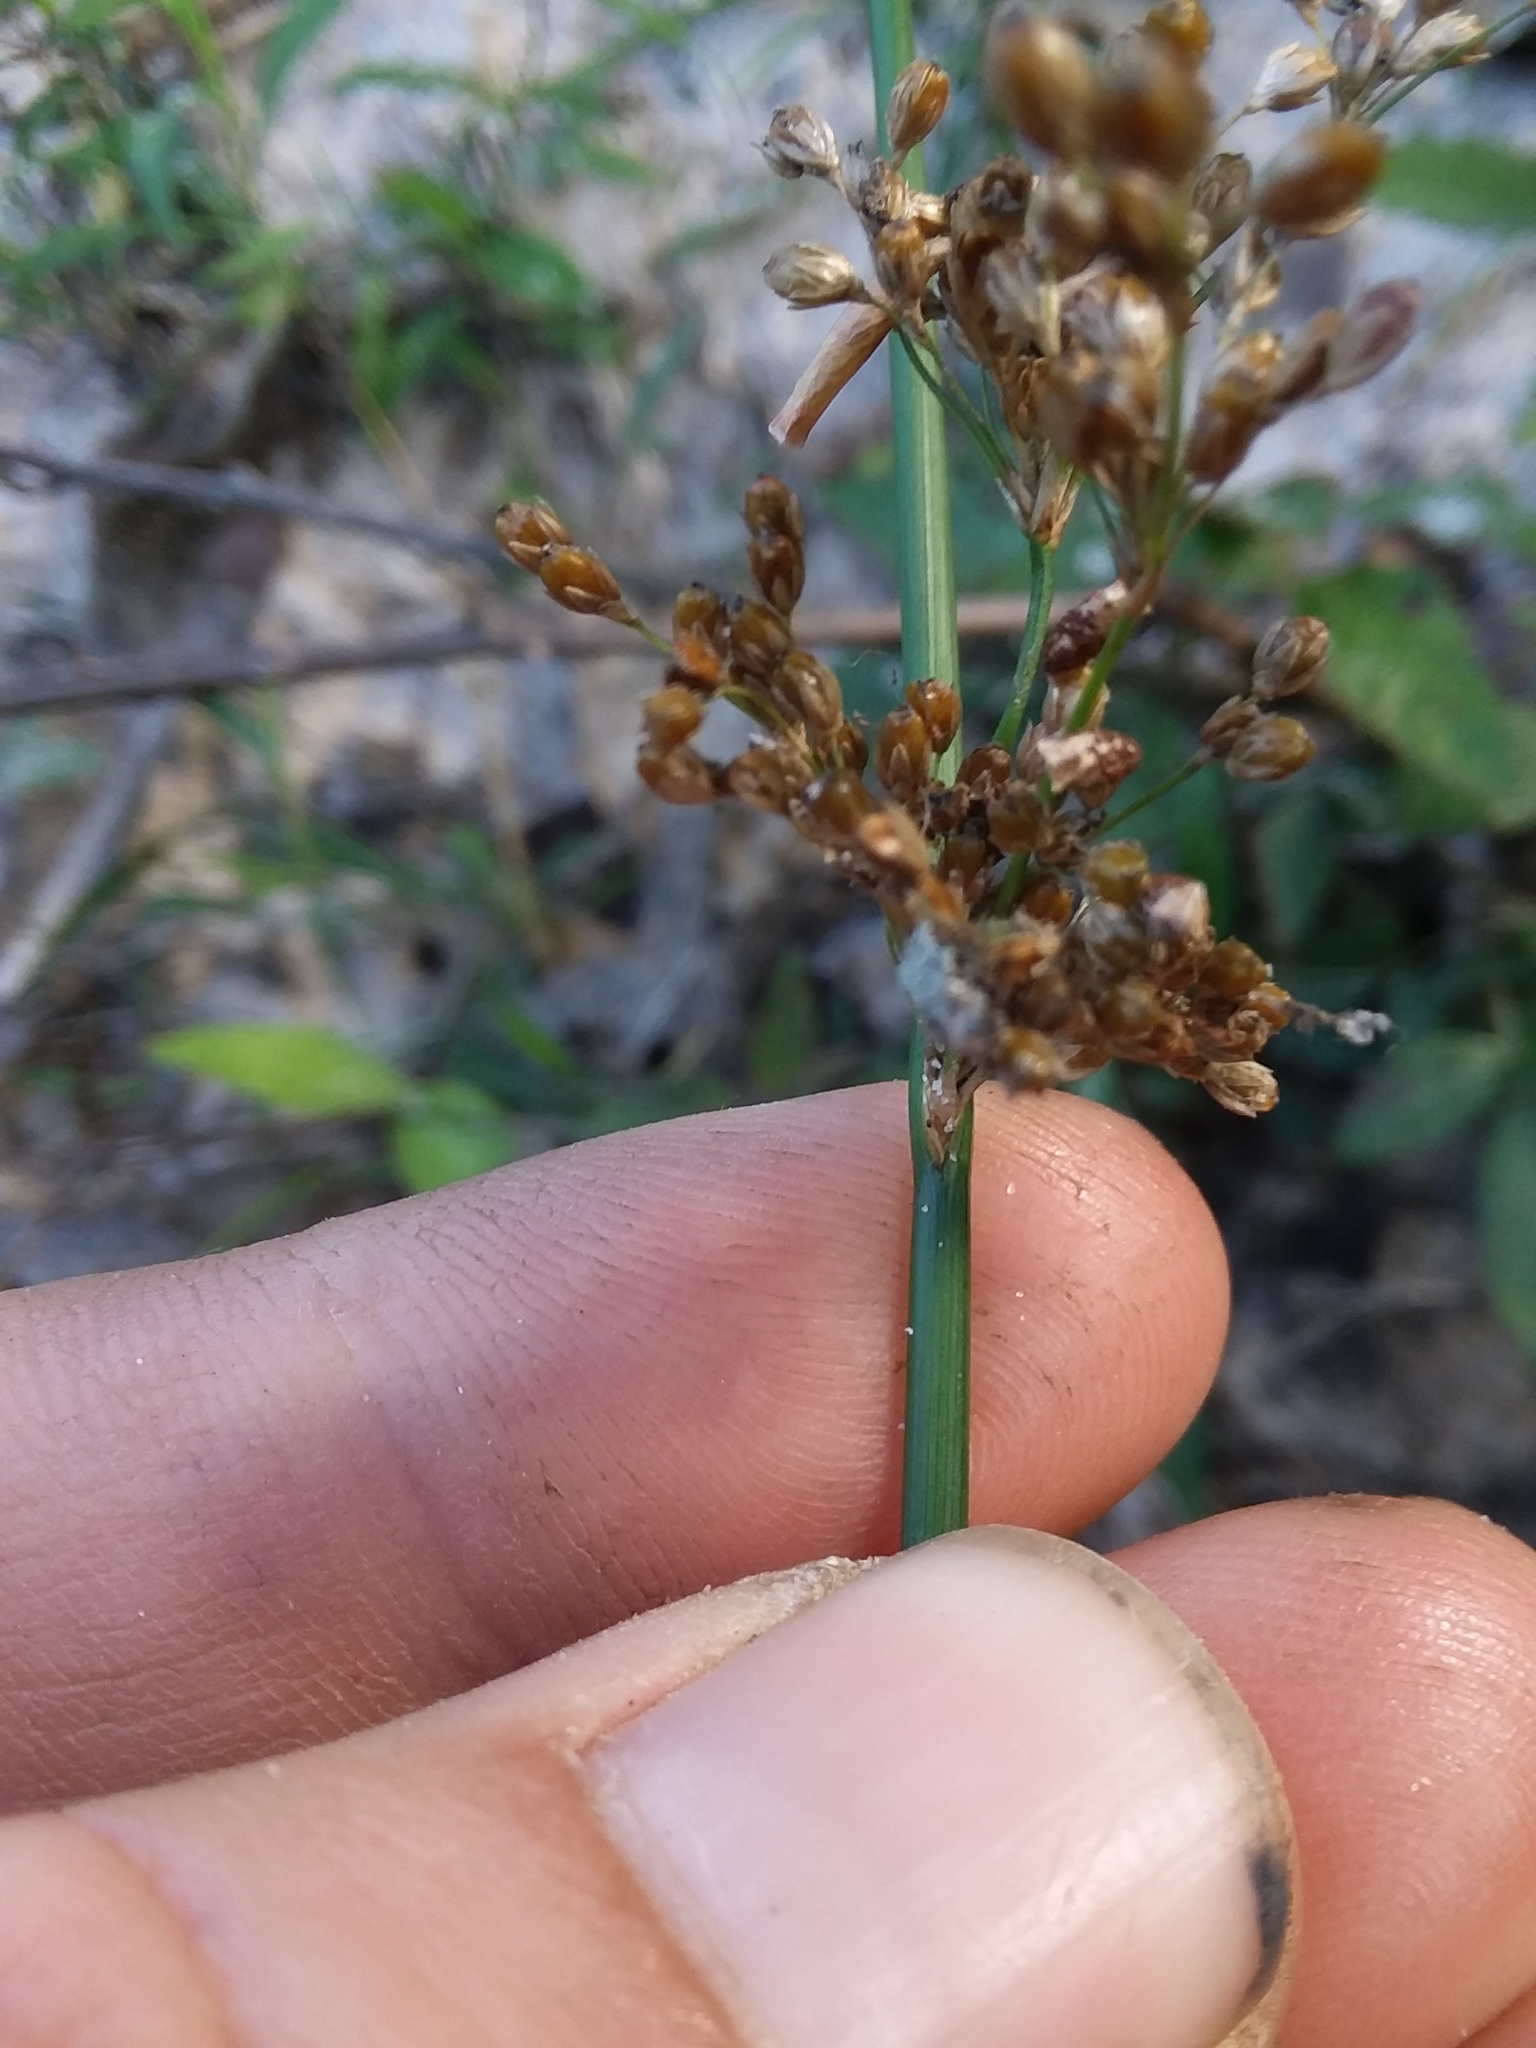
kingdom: Plantae
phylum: Tracheophyta
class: Liliopsida
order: Poales
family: Juncaceae
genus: Juncus
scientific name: Juncus effusus
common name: Soft rush
